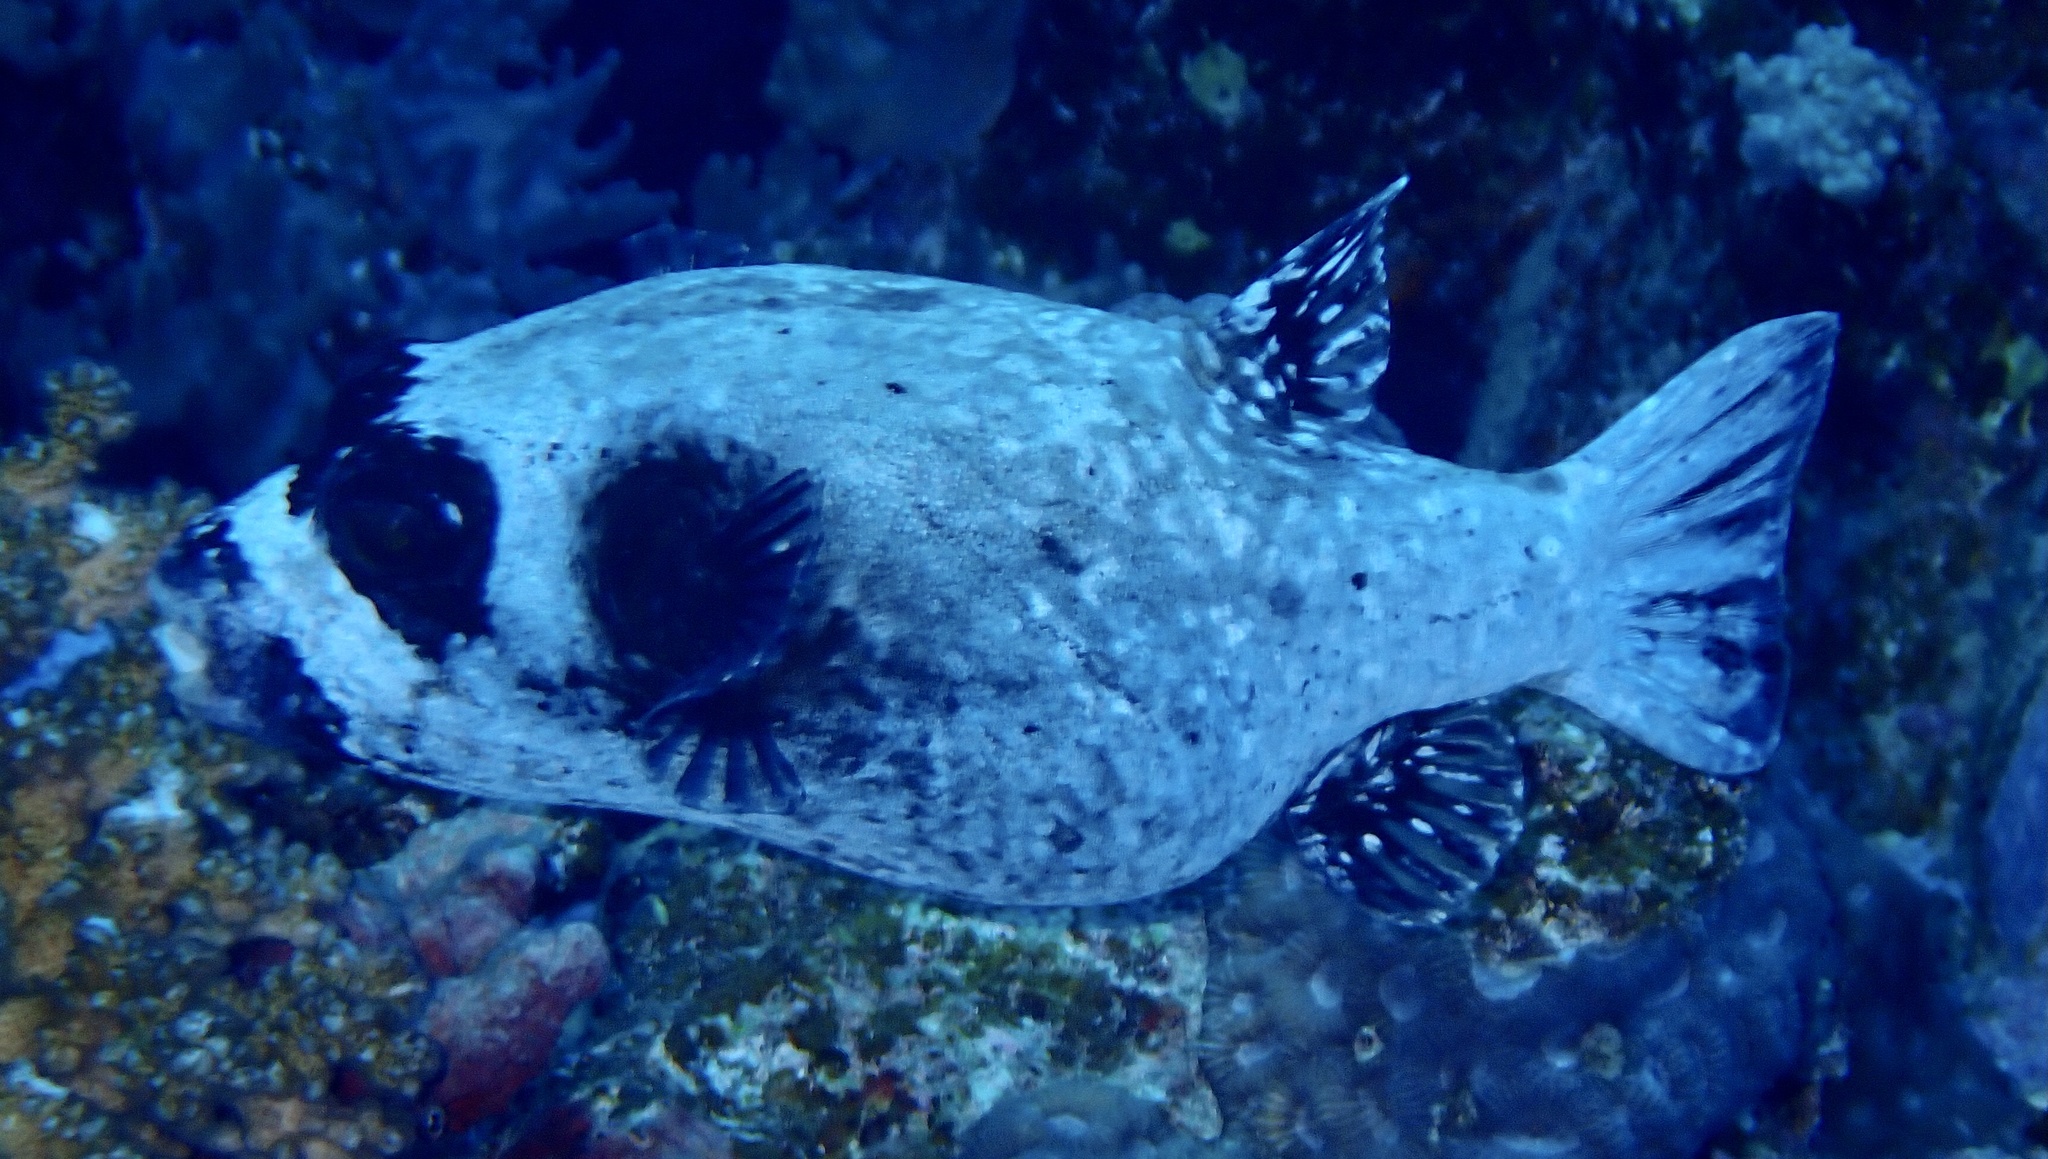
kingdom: Animalia
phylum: Chordata
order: Tetraodontiformes
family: Tetraodontidae
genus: Arothron
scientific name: Arothron diadematus
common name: Masked puffer
